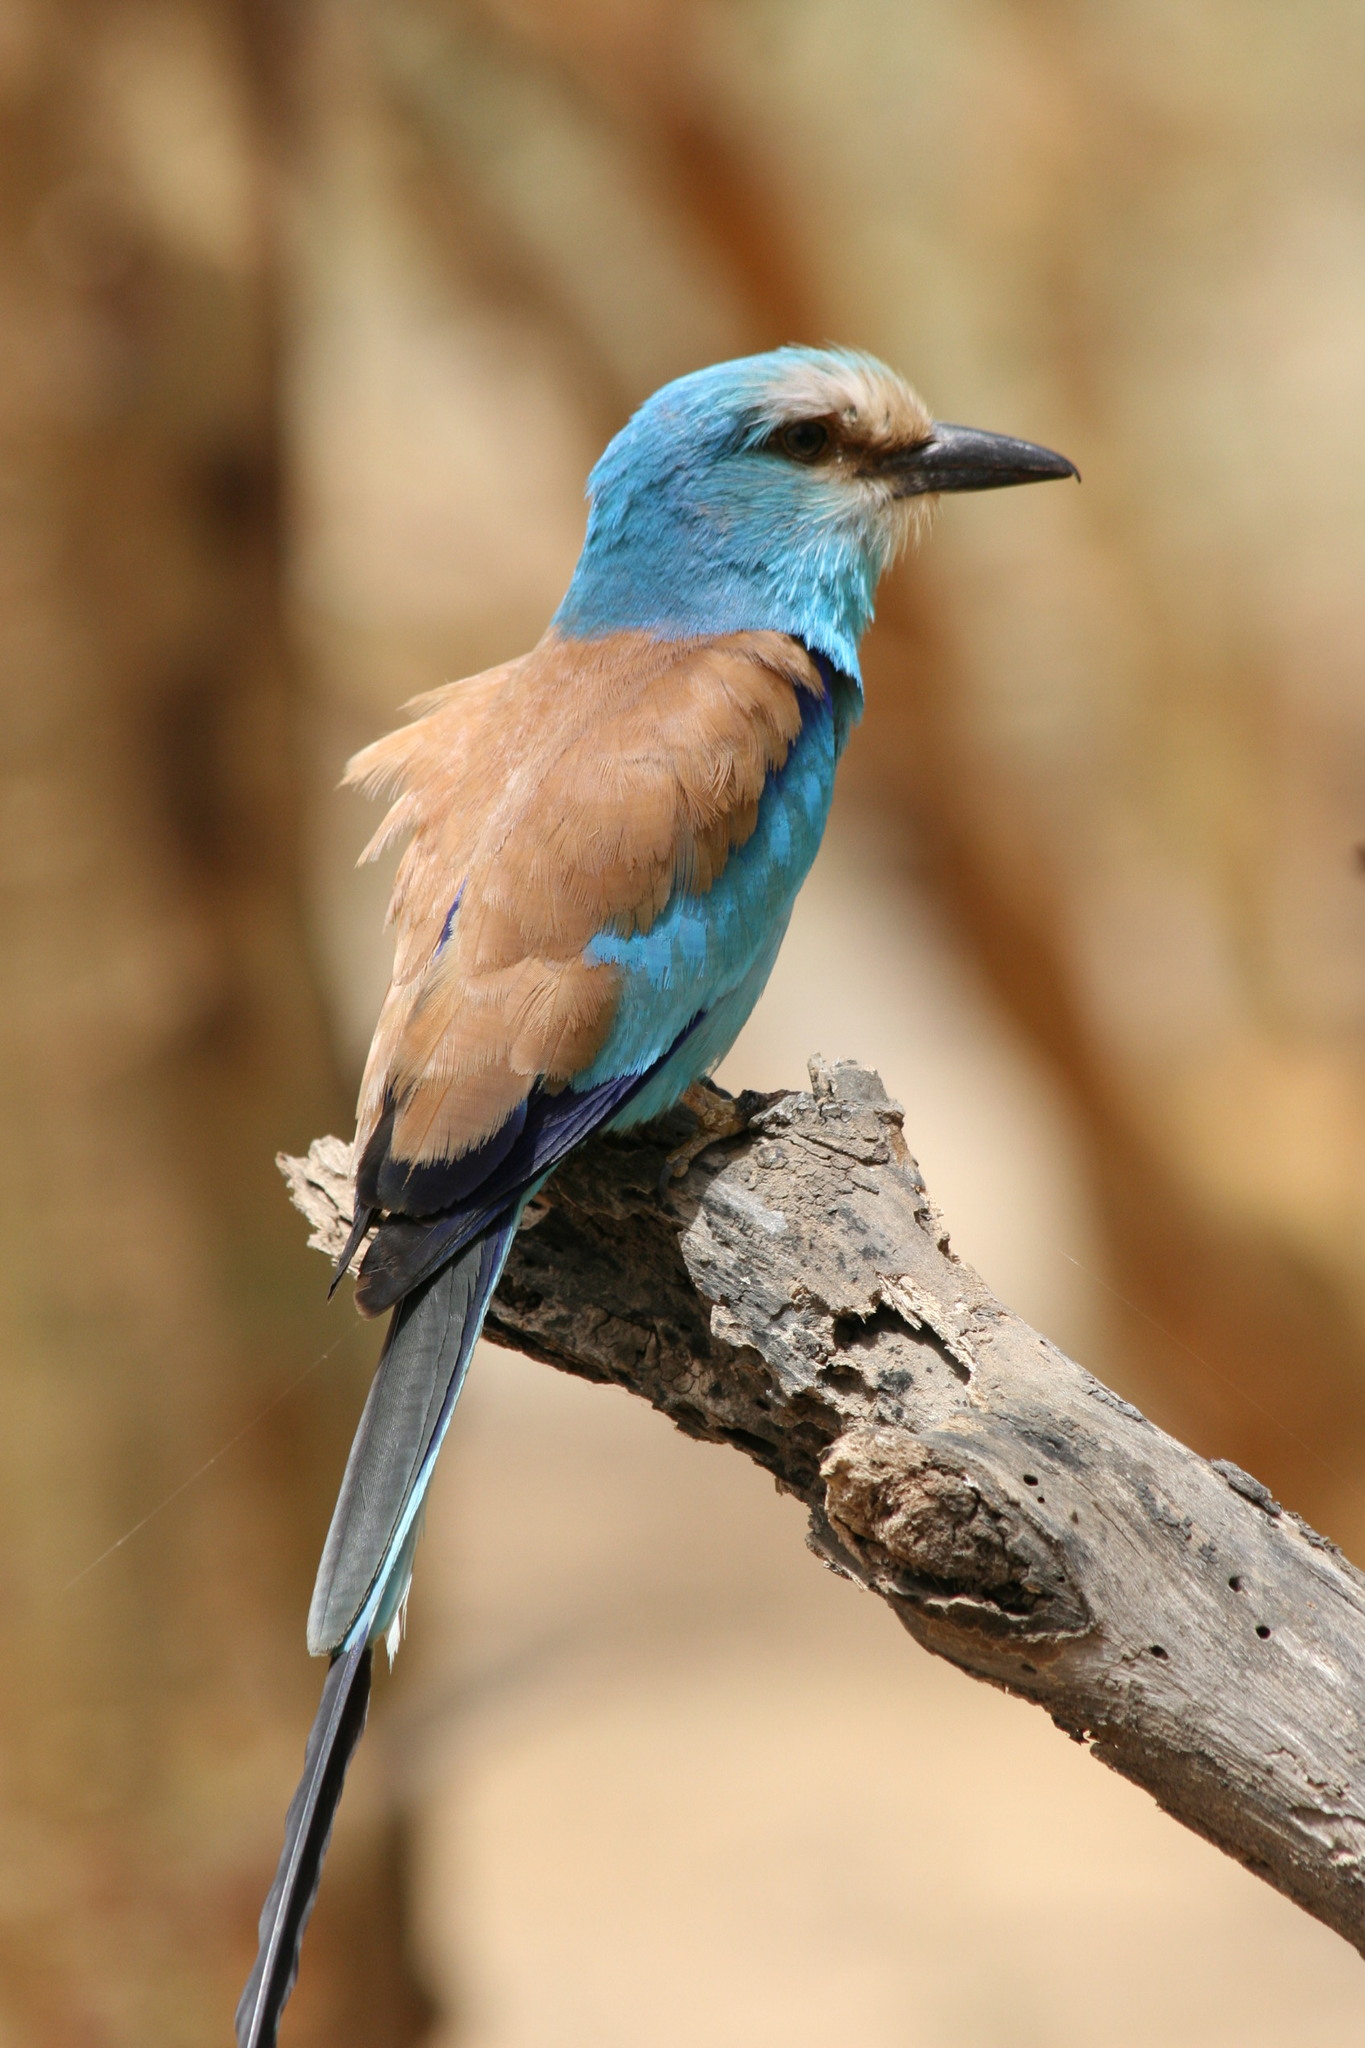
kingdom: Animalia
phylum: Chordata
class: Aves
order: Coraciiformes
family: Coraciidae
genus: Coracias
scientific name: Coracias abyssinicus
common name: Abyssinian roller
